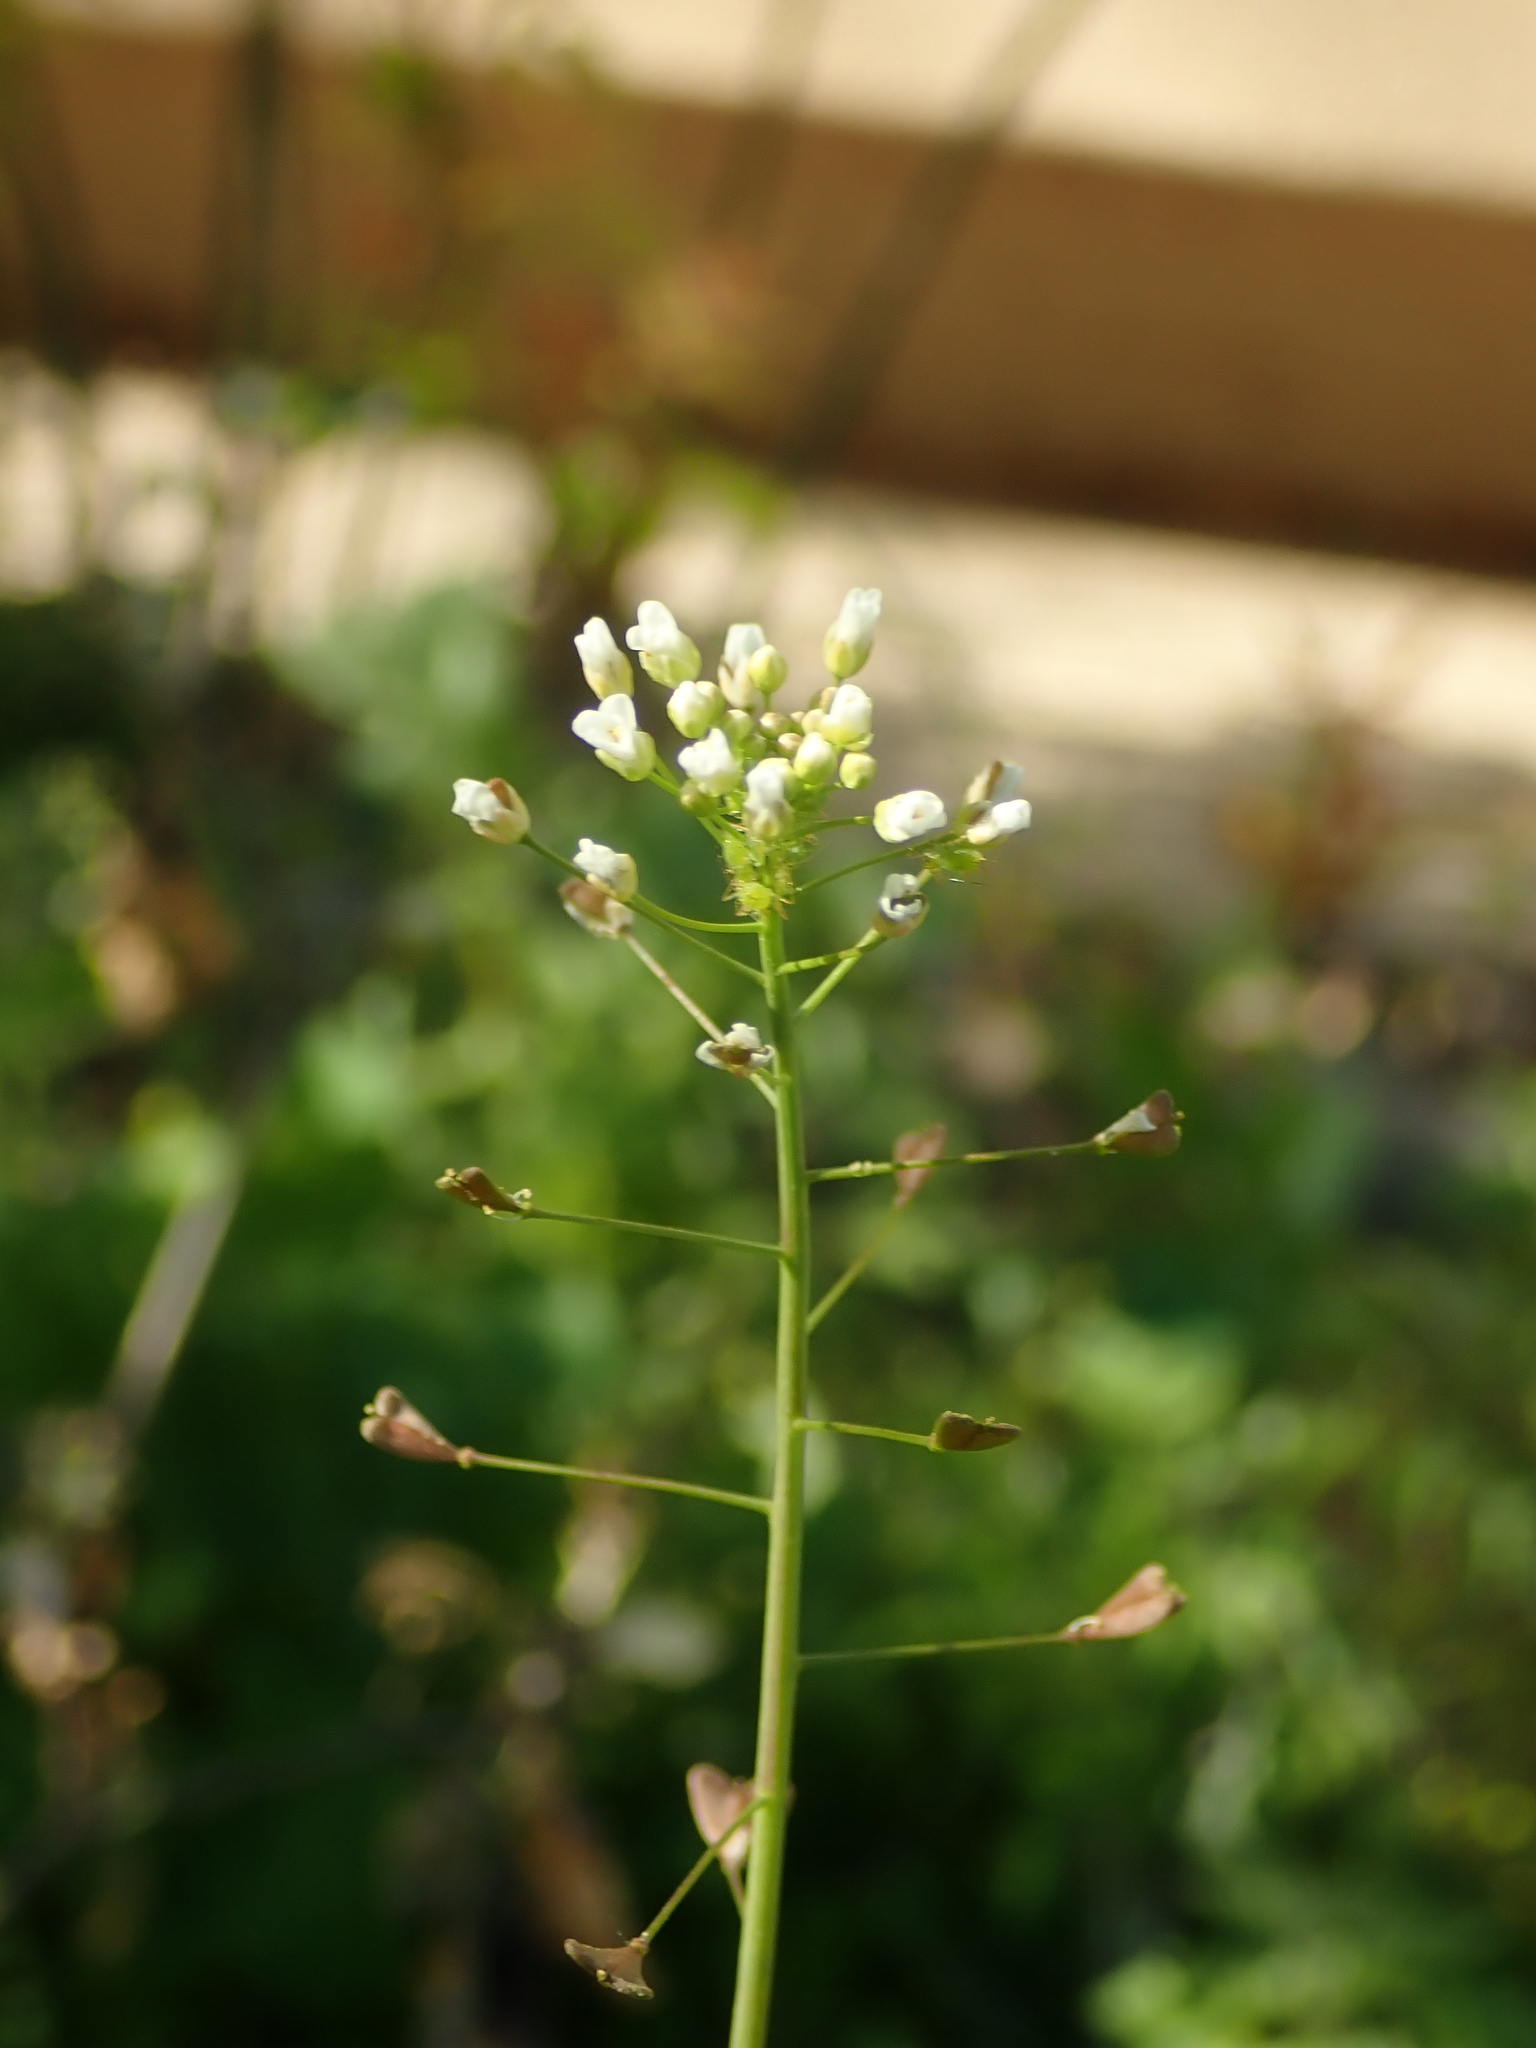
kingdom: Plantae
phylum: Tracheophyta
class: Magnoliopsida
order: Brassicales
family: Brassicaceae
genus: Capsella
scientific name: Capsella bursa-pastoris
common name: Shepherd's purse
